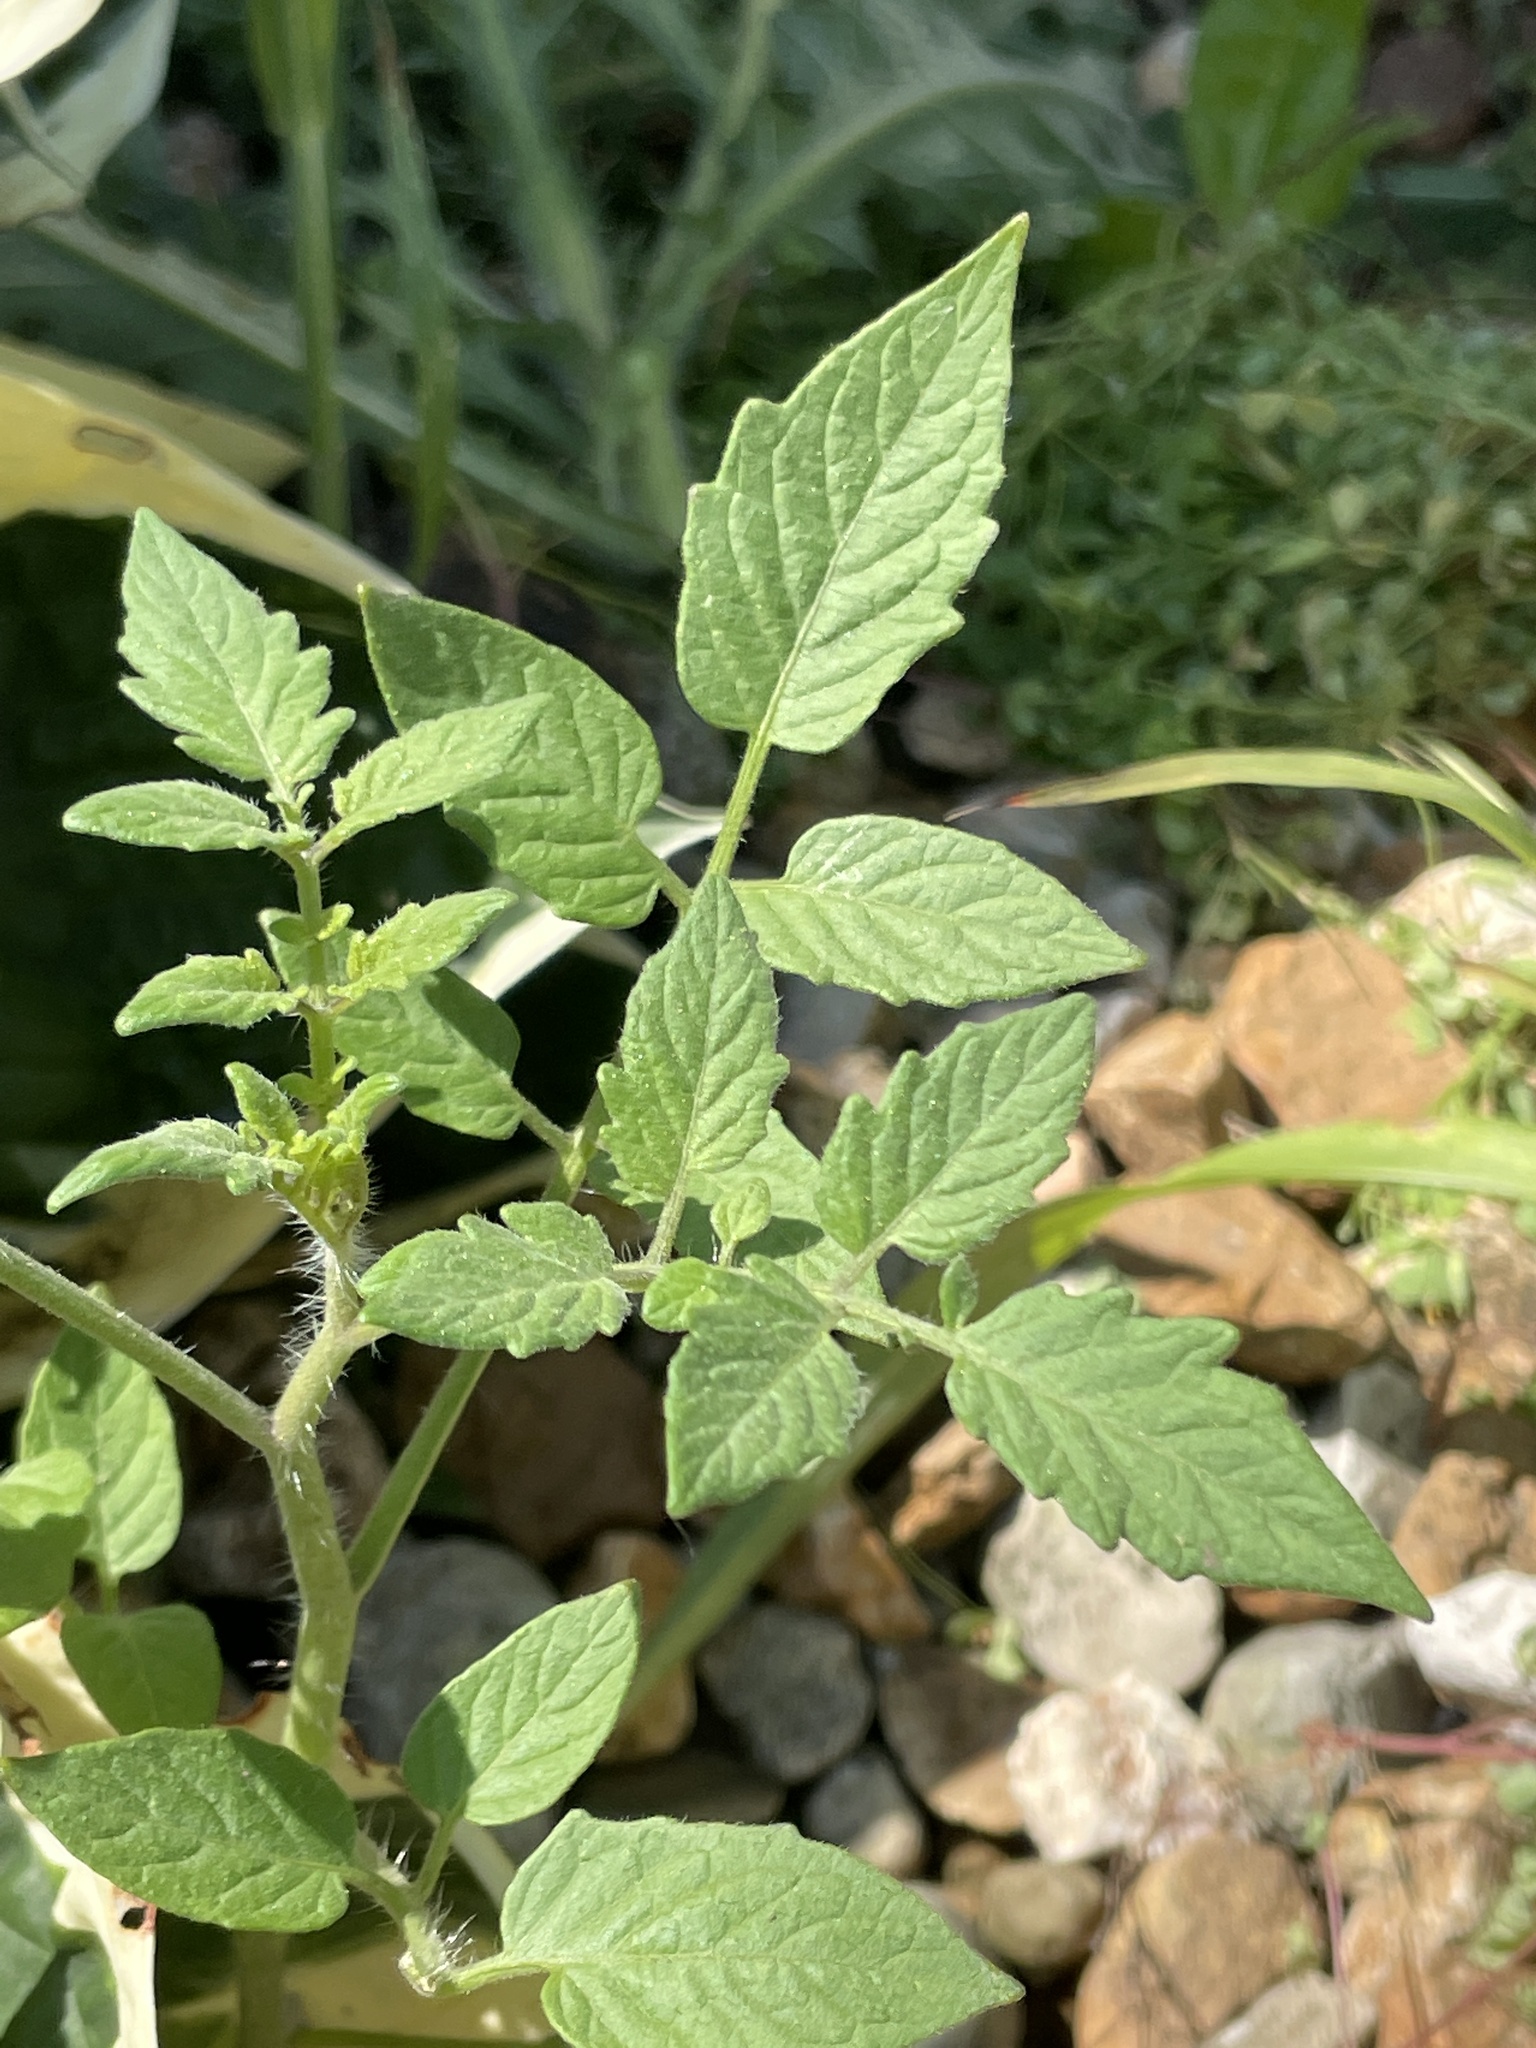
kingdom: Plantae
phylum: Tracheophyta
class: Magnoliopsida
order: Solanales
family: Solanaceae
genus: Solanum
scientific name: Solanum lycopersicum
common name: Garden tomato
